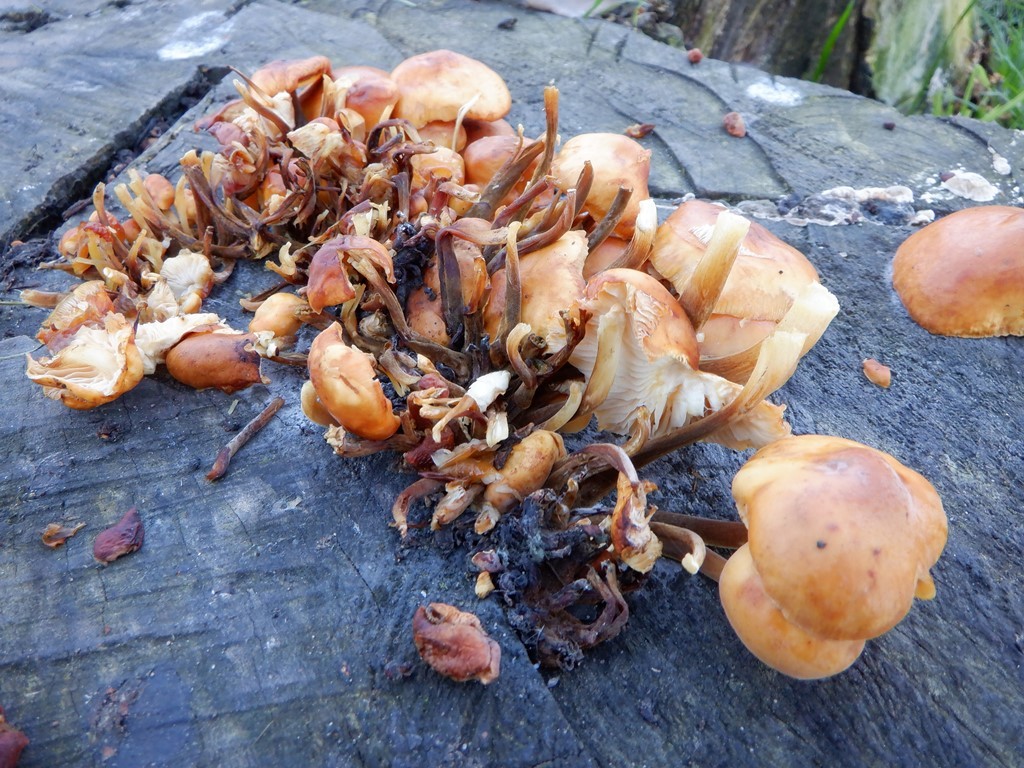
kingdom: Fungi
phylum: Basidiomycota
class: Agaricomycetes
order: Agaricales
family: Physalacriaceae
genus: Flammulina
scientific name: Flammulina
